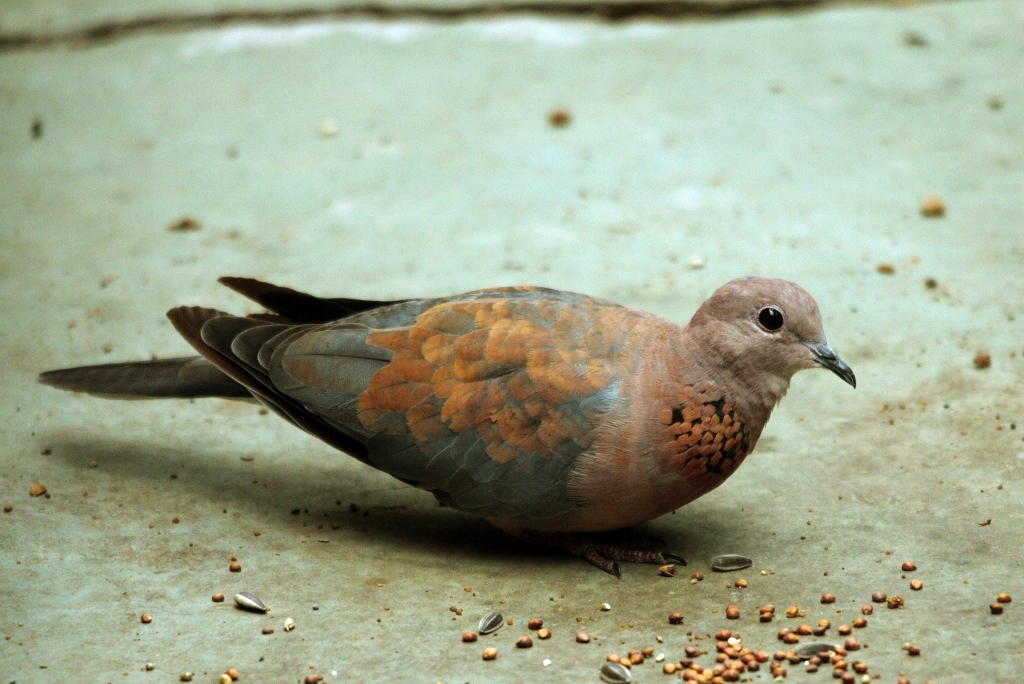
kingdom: Animalia
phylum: Chordata
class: Aves
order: Columbiformes
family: Columbidae
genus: Spilopelia
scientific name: Spilopelia senegalensis
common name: Laughing dove
